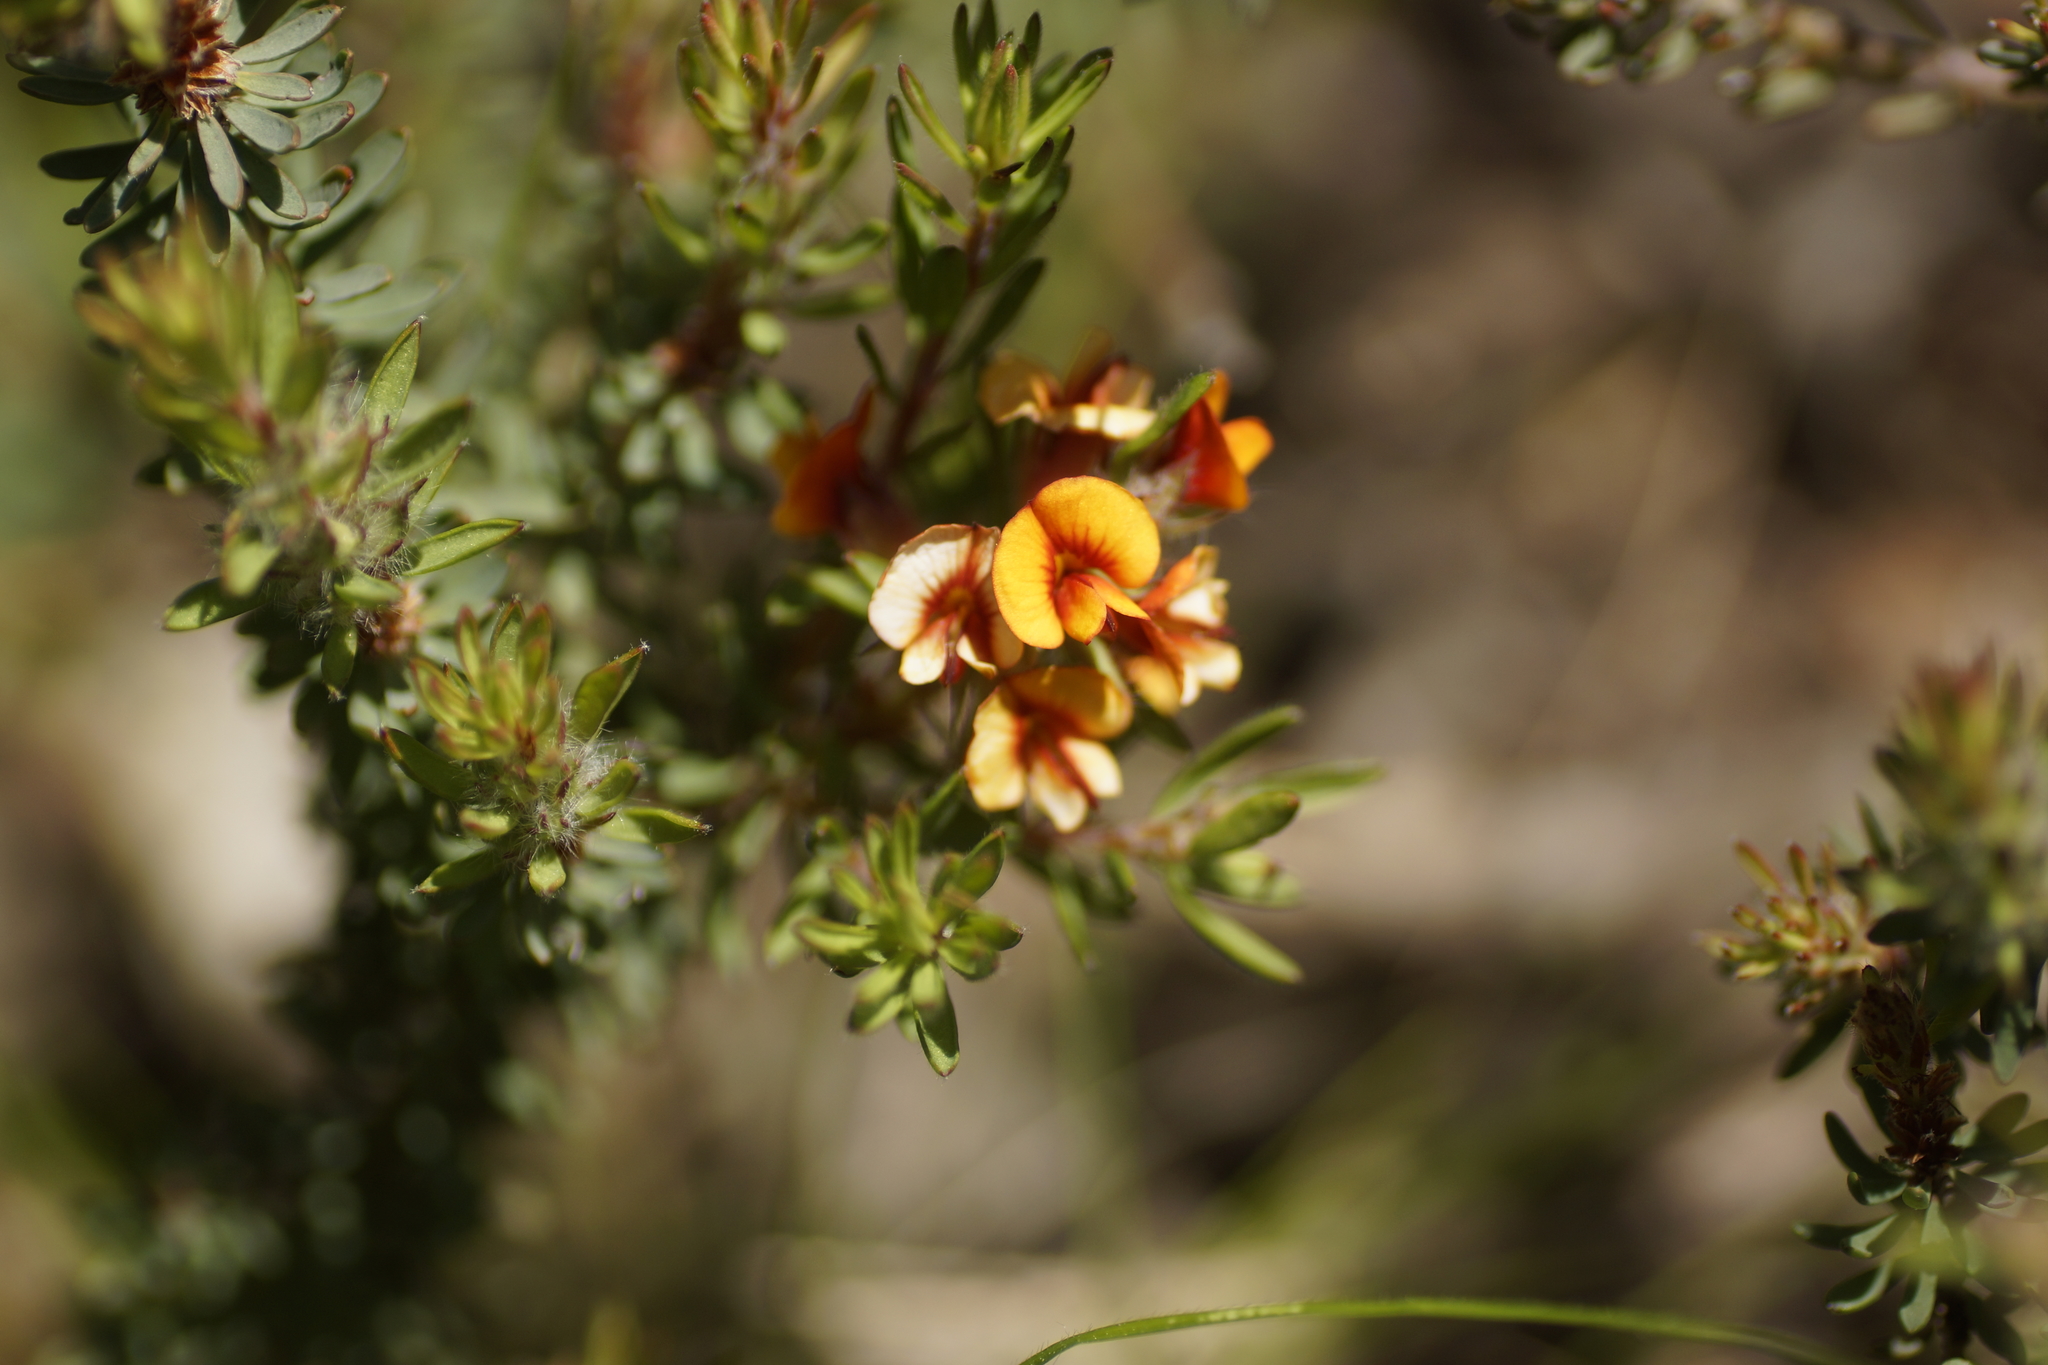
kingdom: Plantae
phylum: Tracheophyta
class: Magnoliopsida
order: Fabales
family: Fabaceae
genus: Pultenaea
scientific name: Pultenaea humilis
